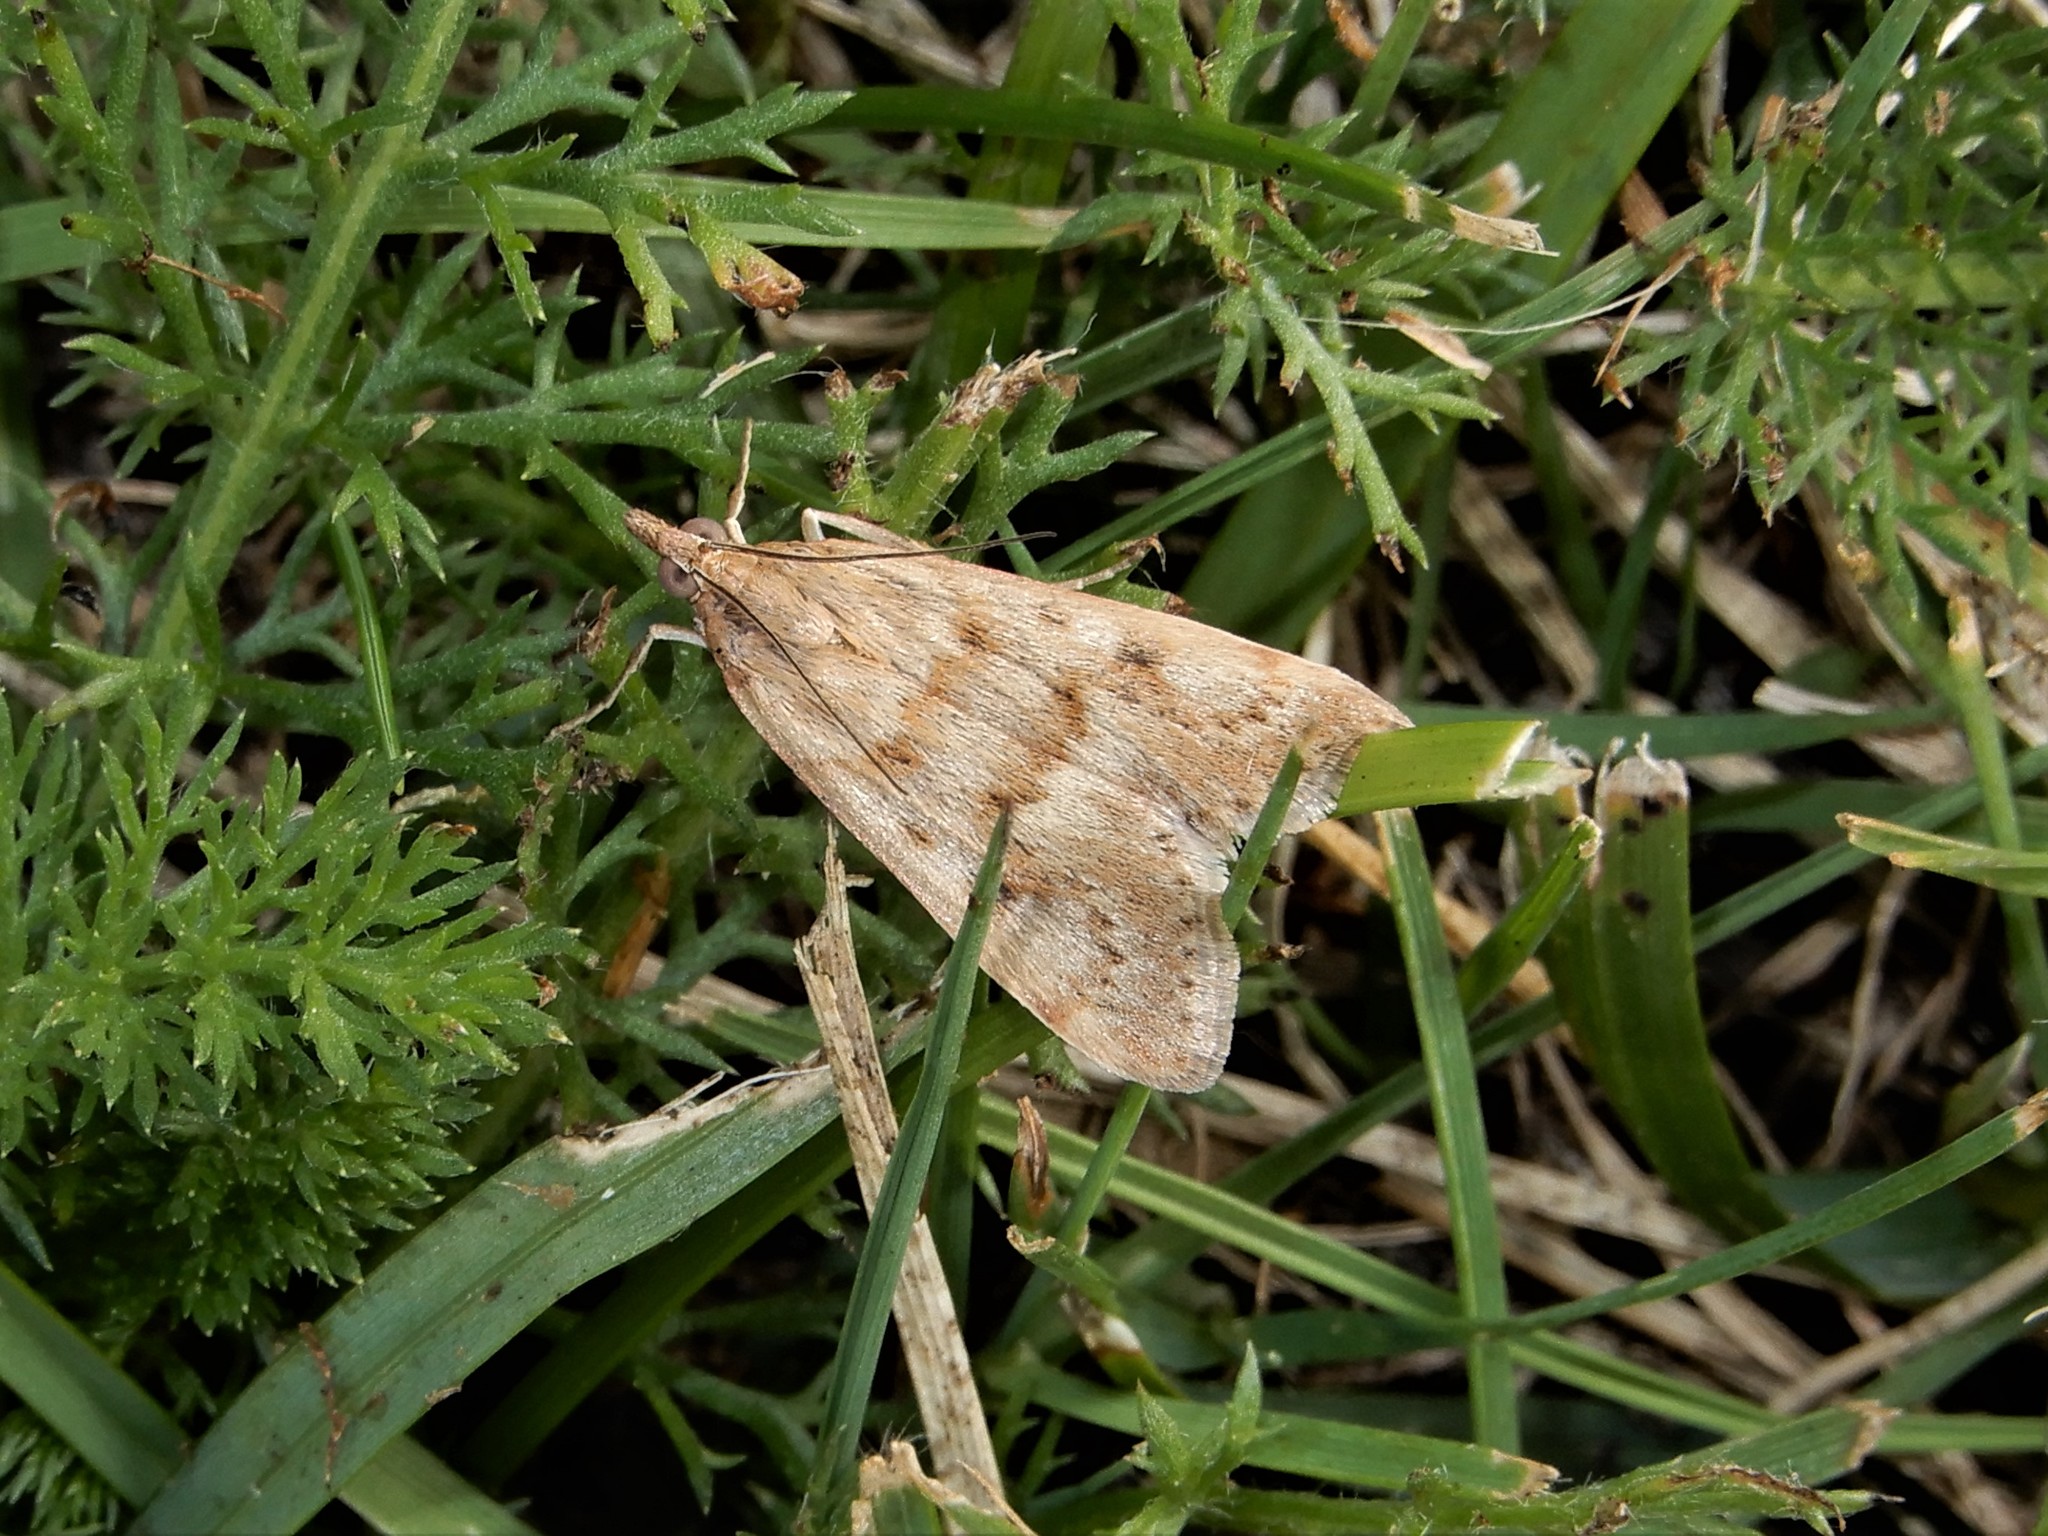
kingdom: Animalia
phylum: Arthropoda
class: Insecta
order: Lepidoptera
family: Crambidae
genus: Achyra
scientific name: Achyra affinitalis
